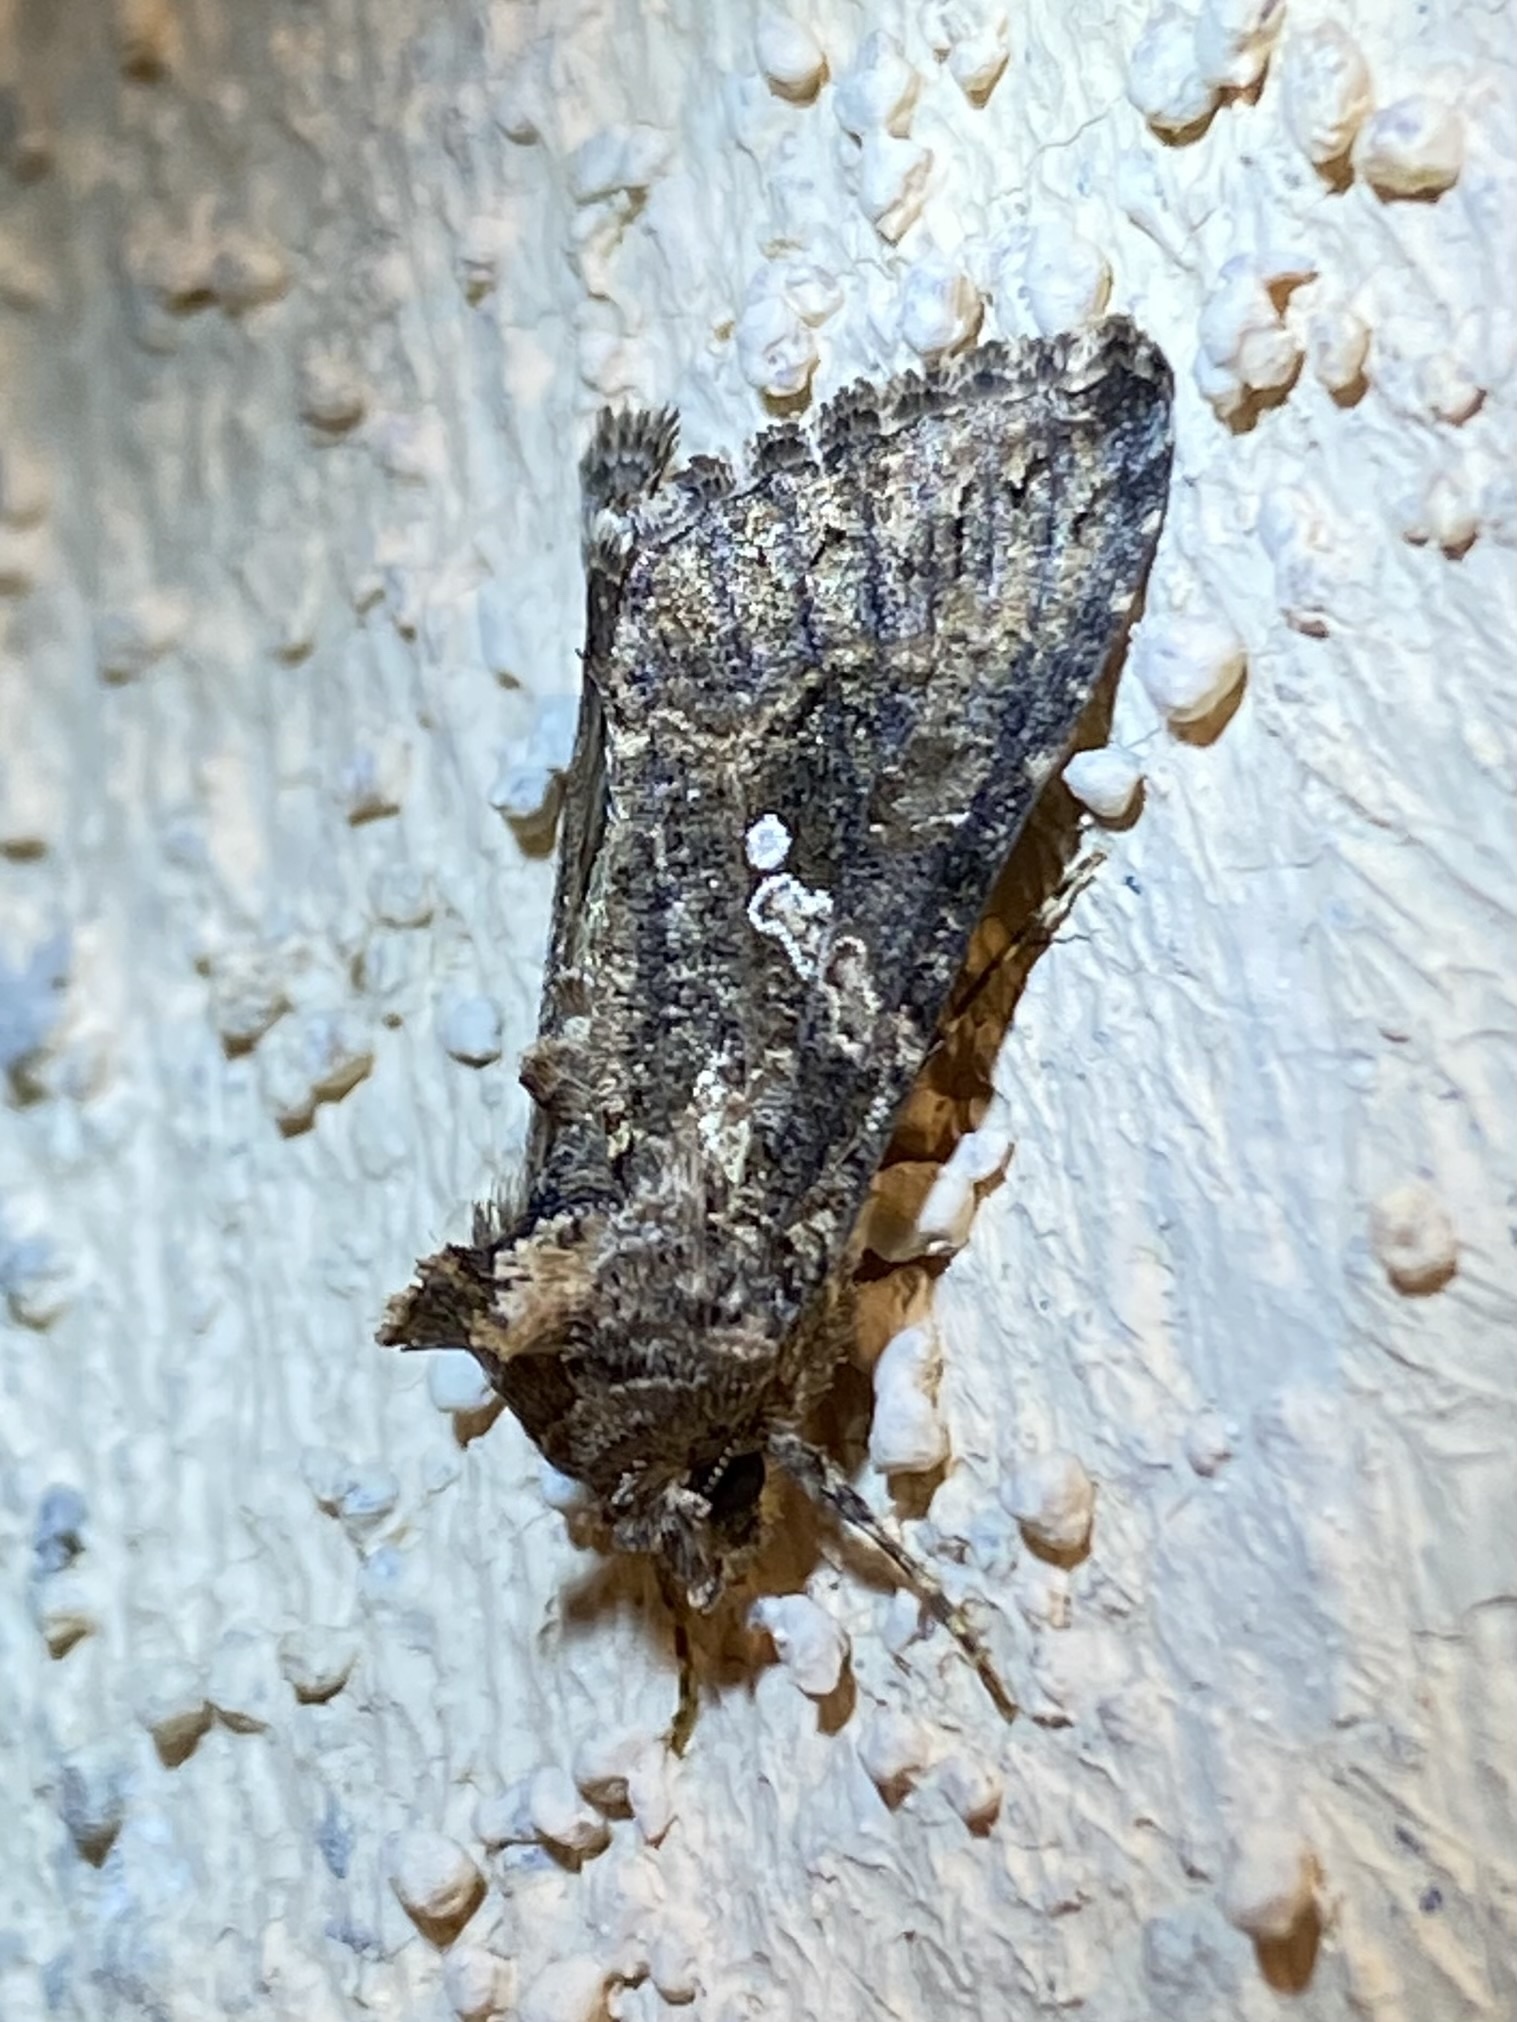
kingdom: Animalia
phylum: Arthropoda
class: Insecta
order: Lepidoptera
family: Noctuidae
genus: Trichoplusia
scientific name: Trichoplusia ni
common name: Ni moth
